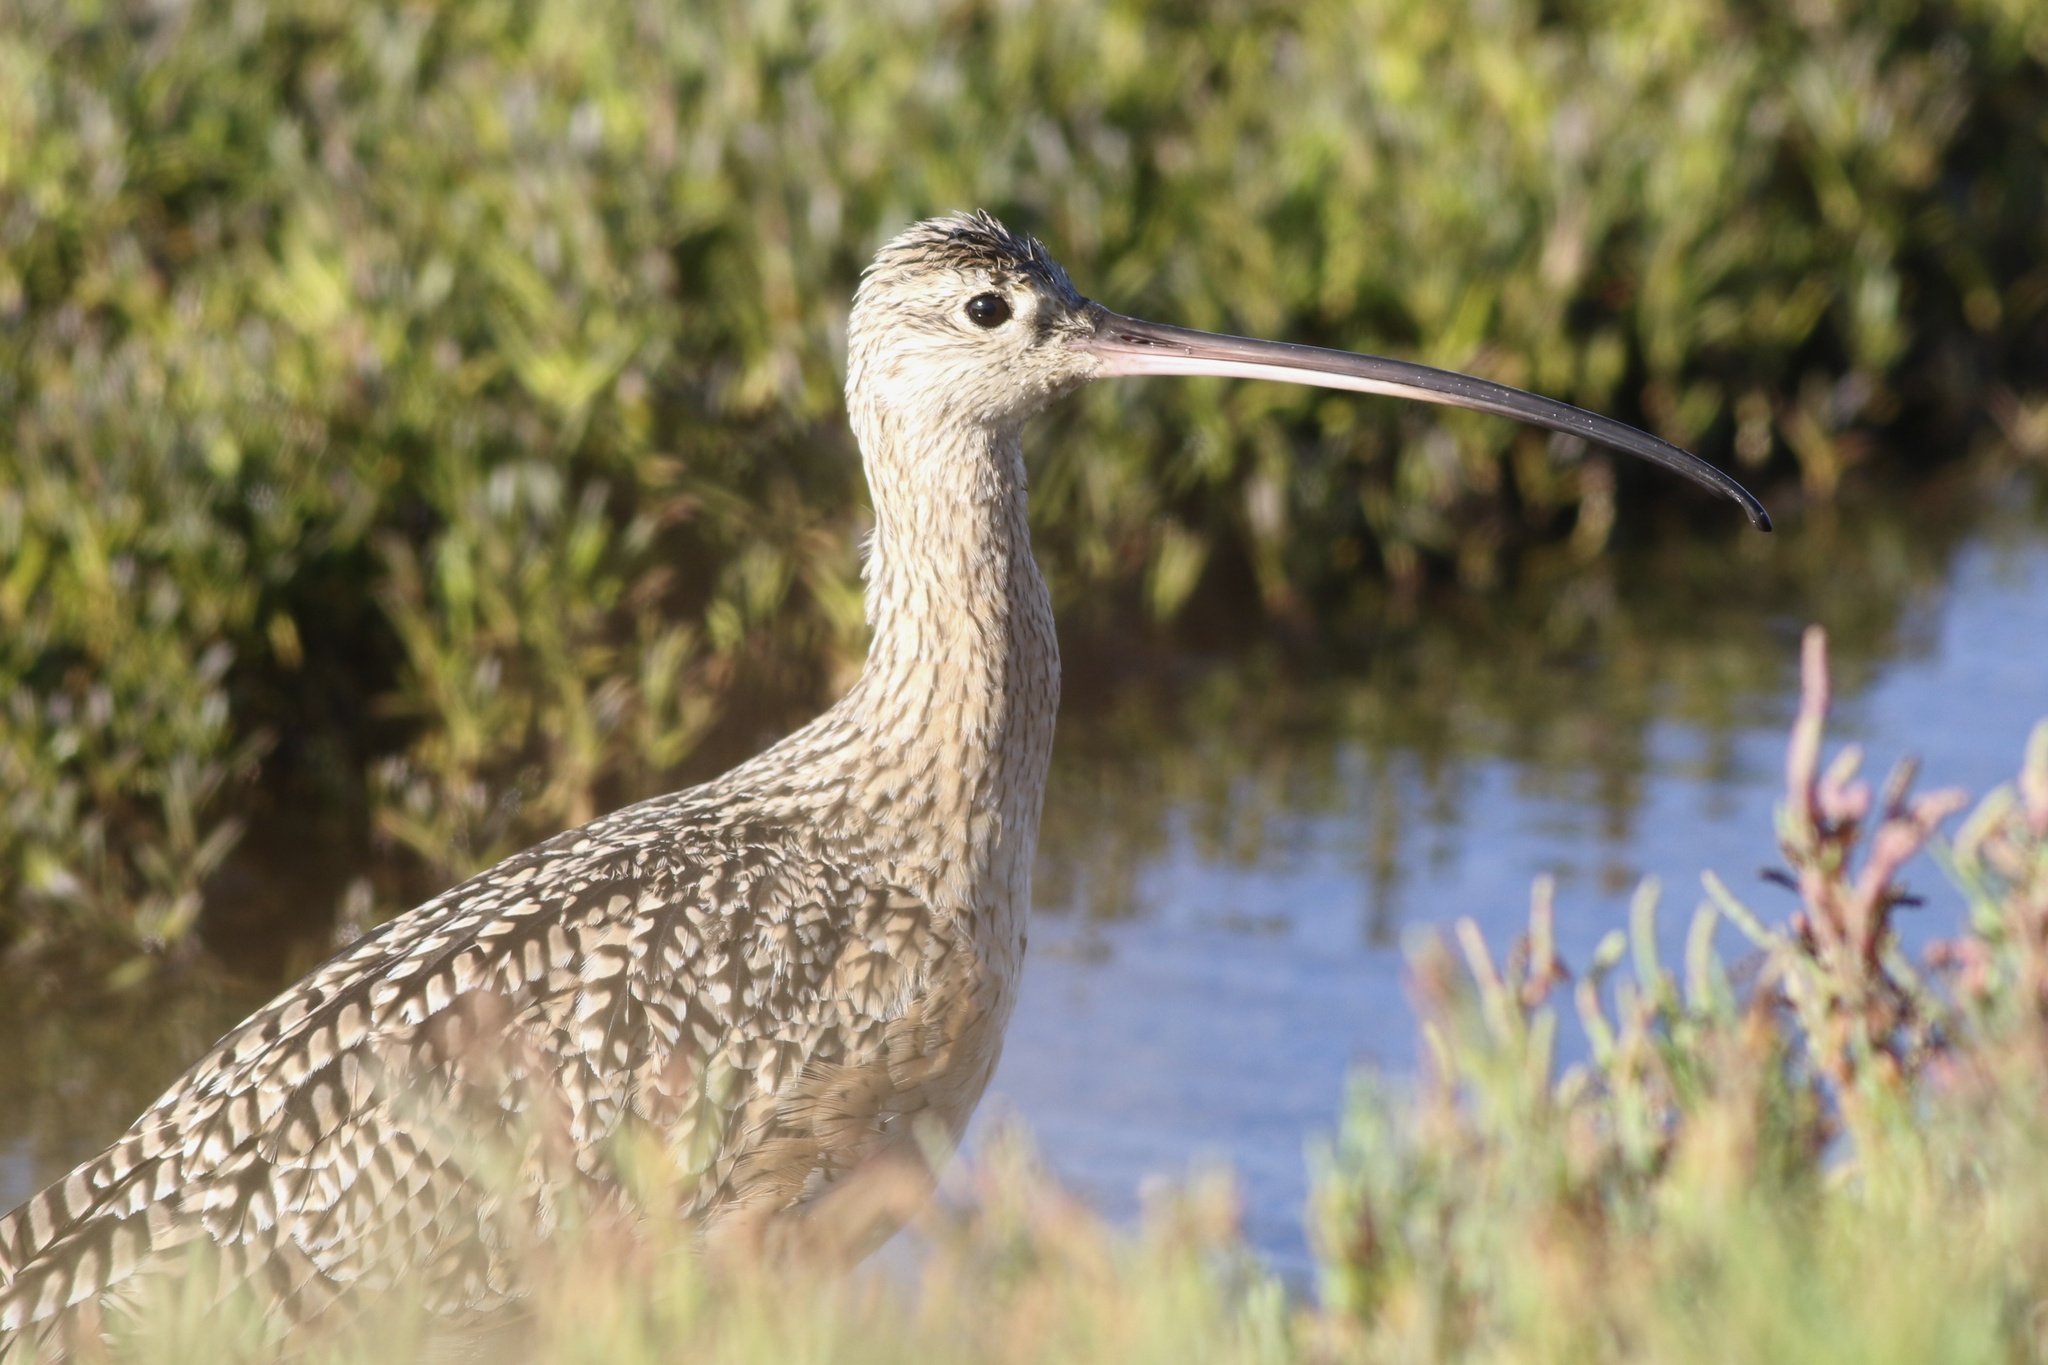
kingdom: Animalia
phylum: Chordata
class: Aves
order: Charadriiformes
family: Scolopacidae
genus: Numenius
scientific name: Numenius americanus
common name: Long-billed curlew
